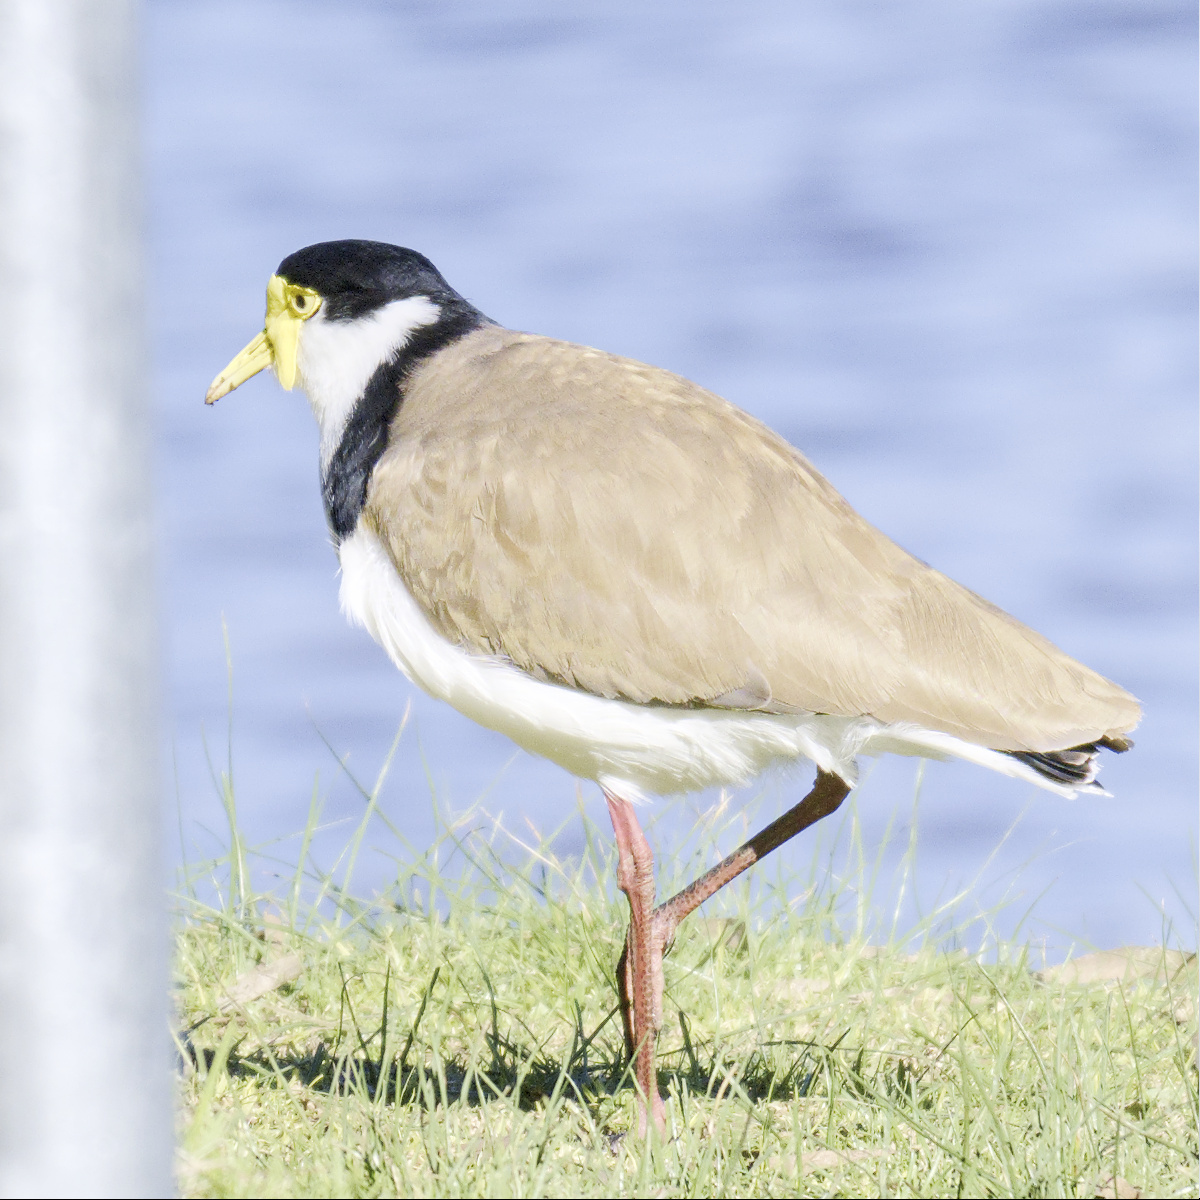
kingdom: Animalia
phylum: Chordata
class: Aves
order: Charadriiformes
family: Charadriidae
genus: Vanellus
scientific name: Vanellus miles
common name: Masked lapwing
